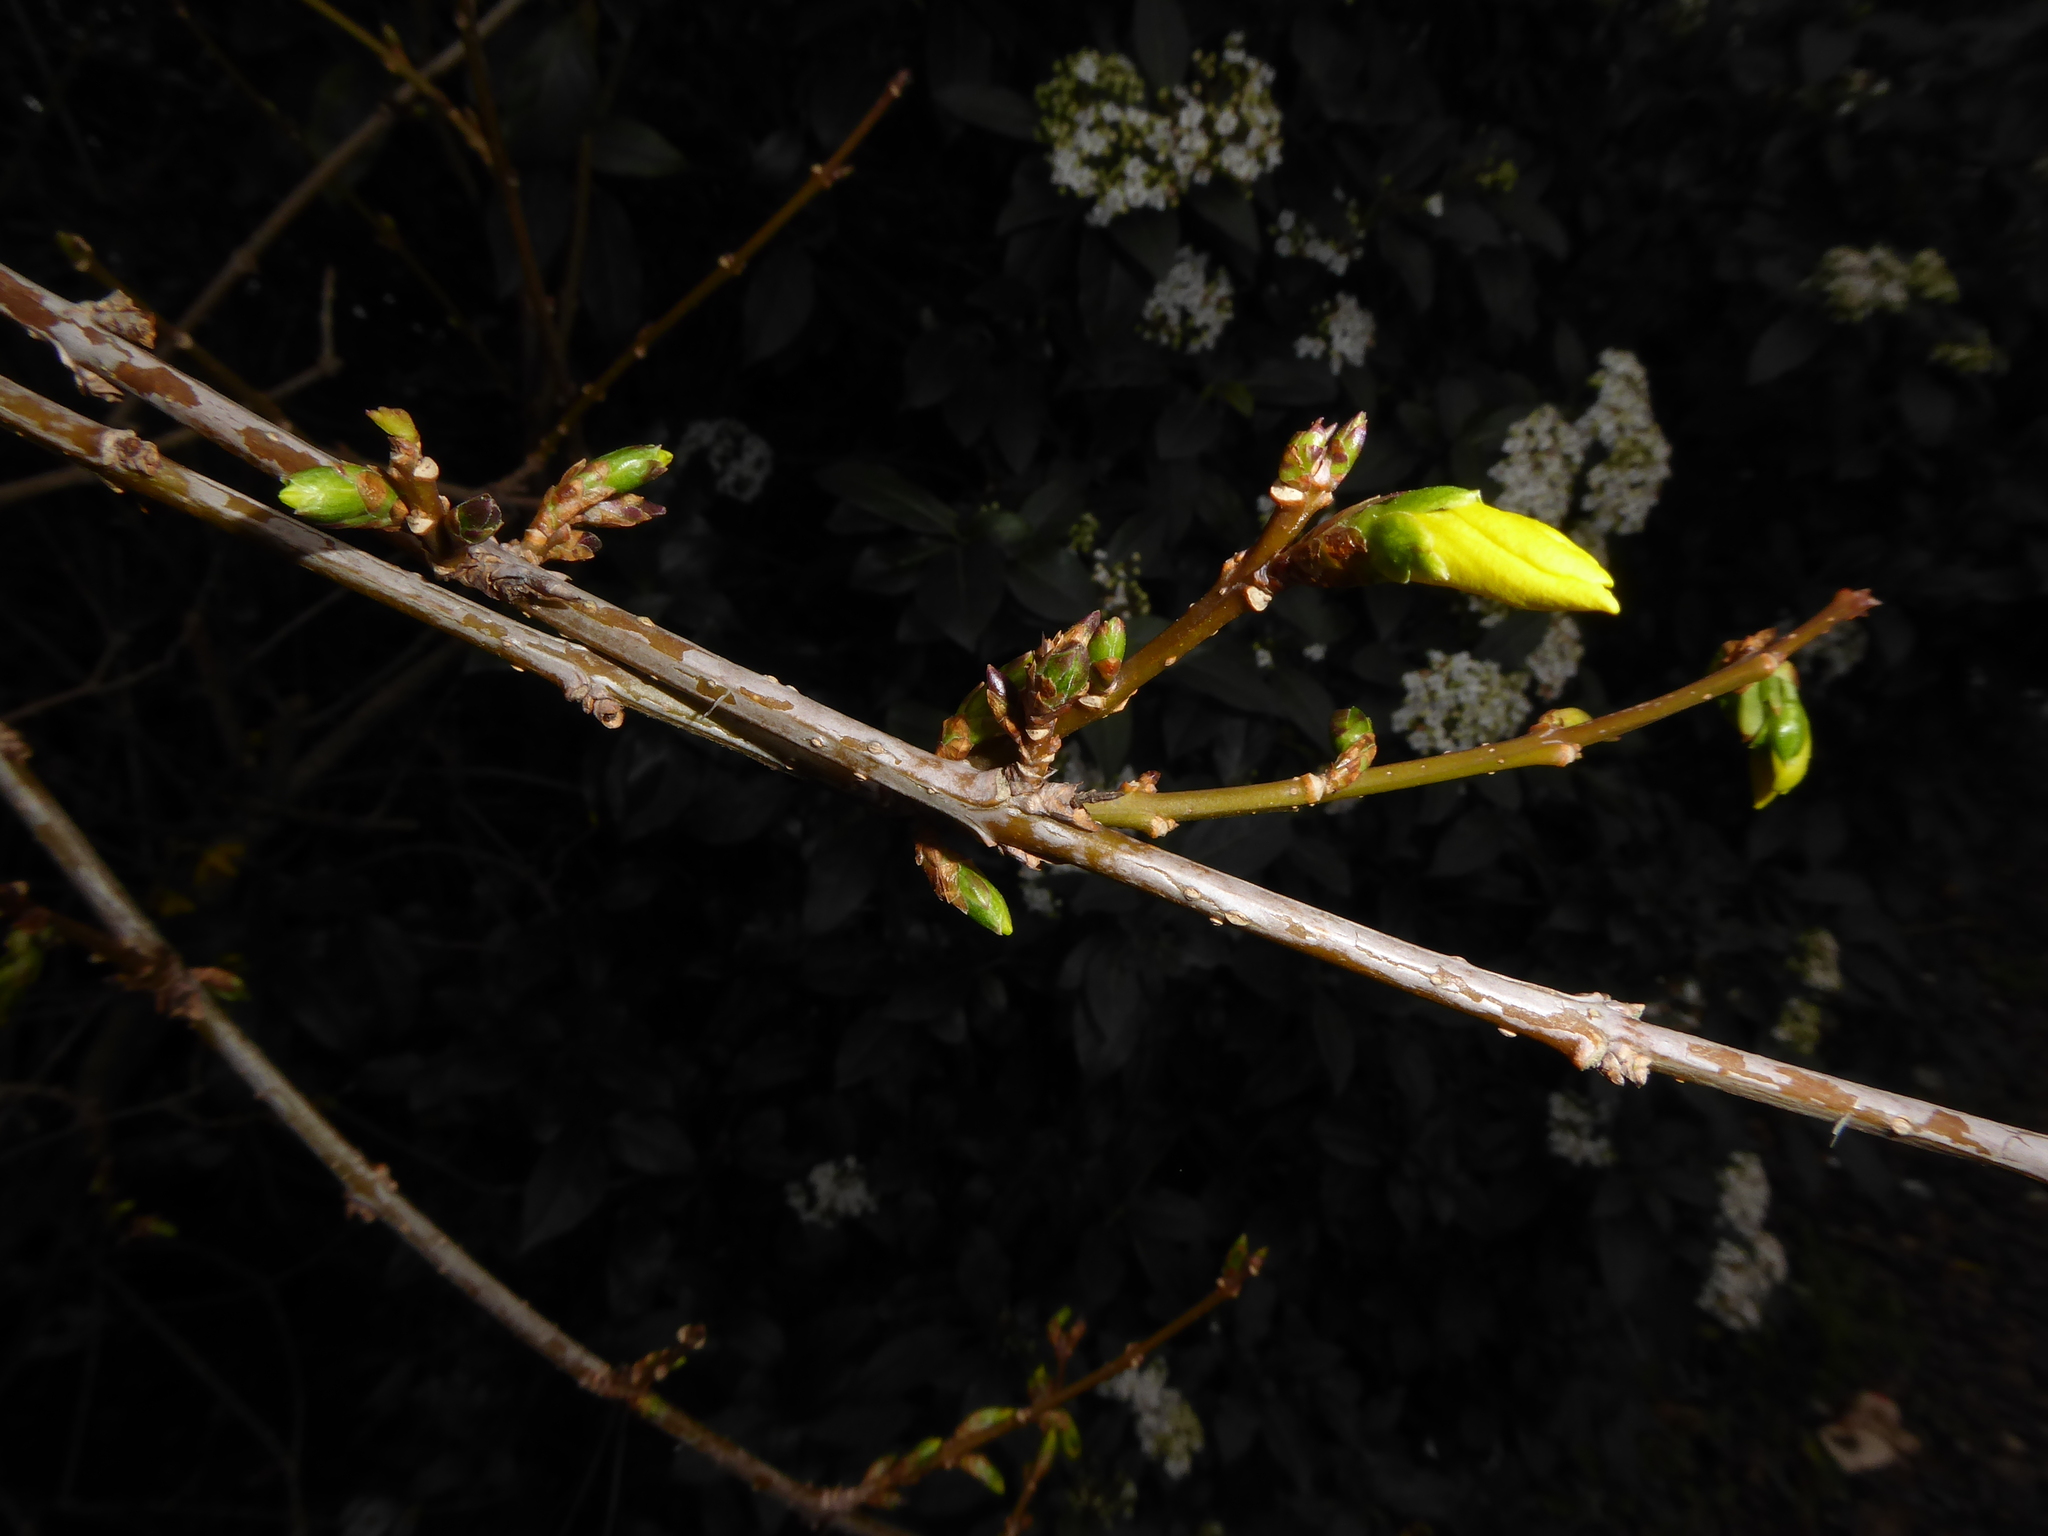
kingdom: Plantae
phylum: Tracheophyta
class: Magnoliopsida
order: Lamiales
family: Oleaceae
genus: Forsythia
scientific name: Forsythia
